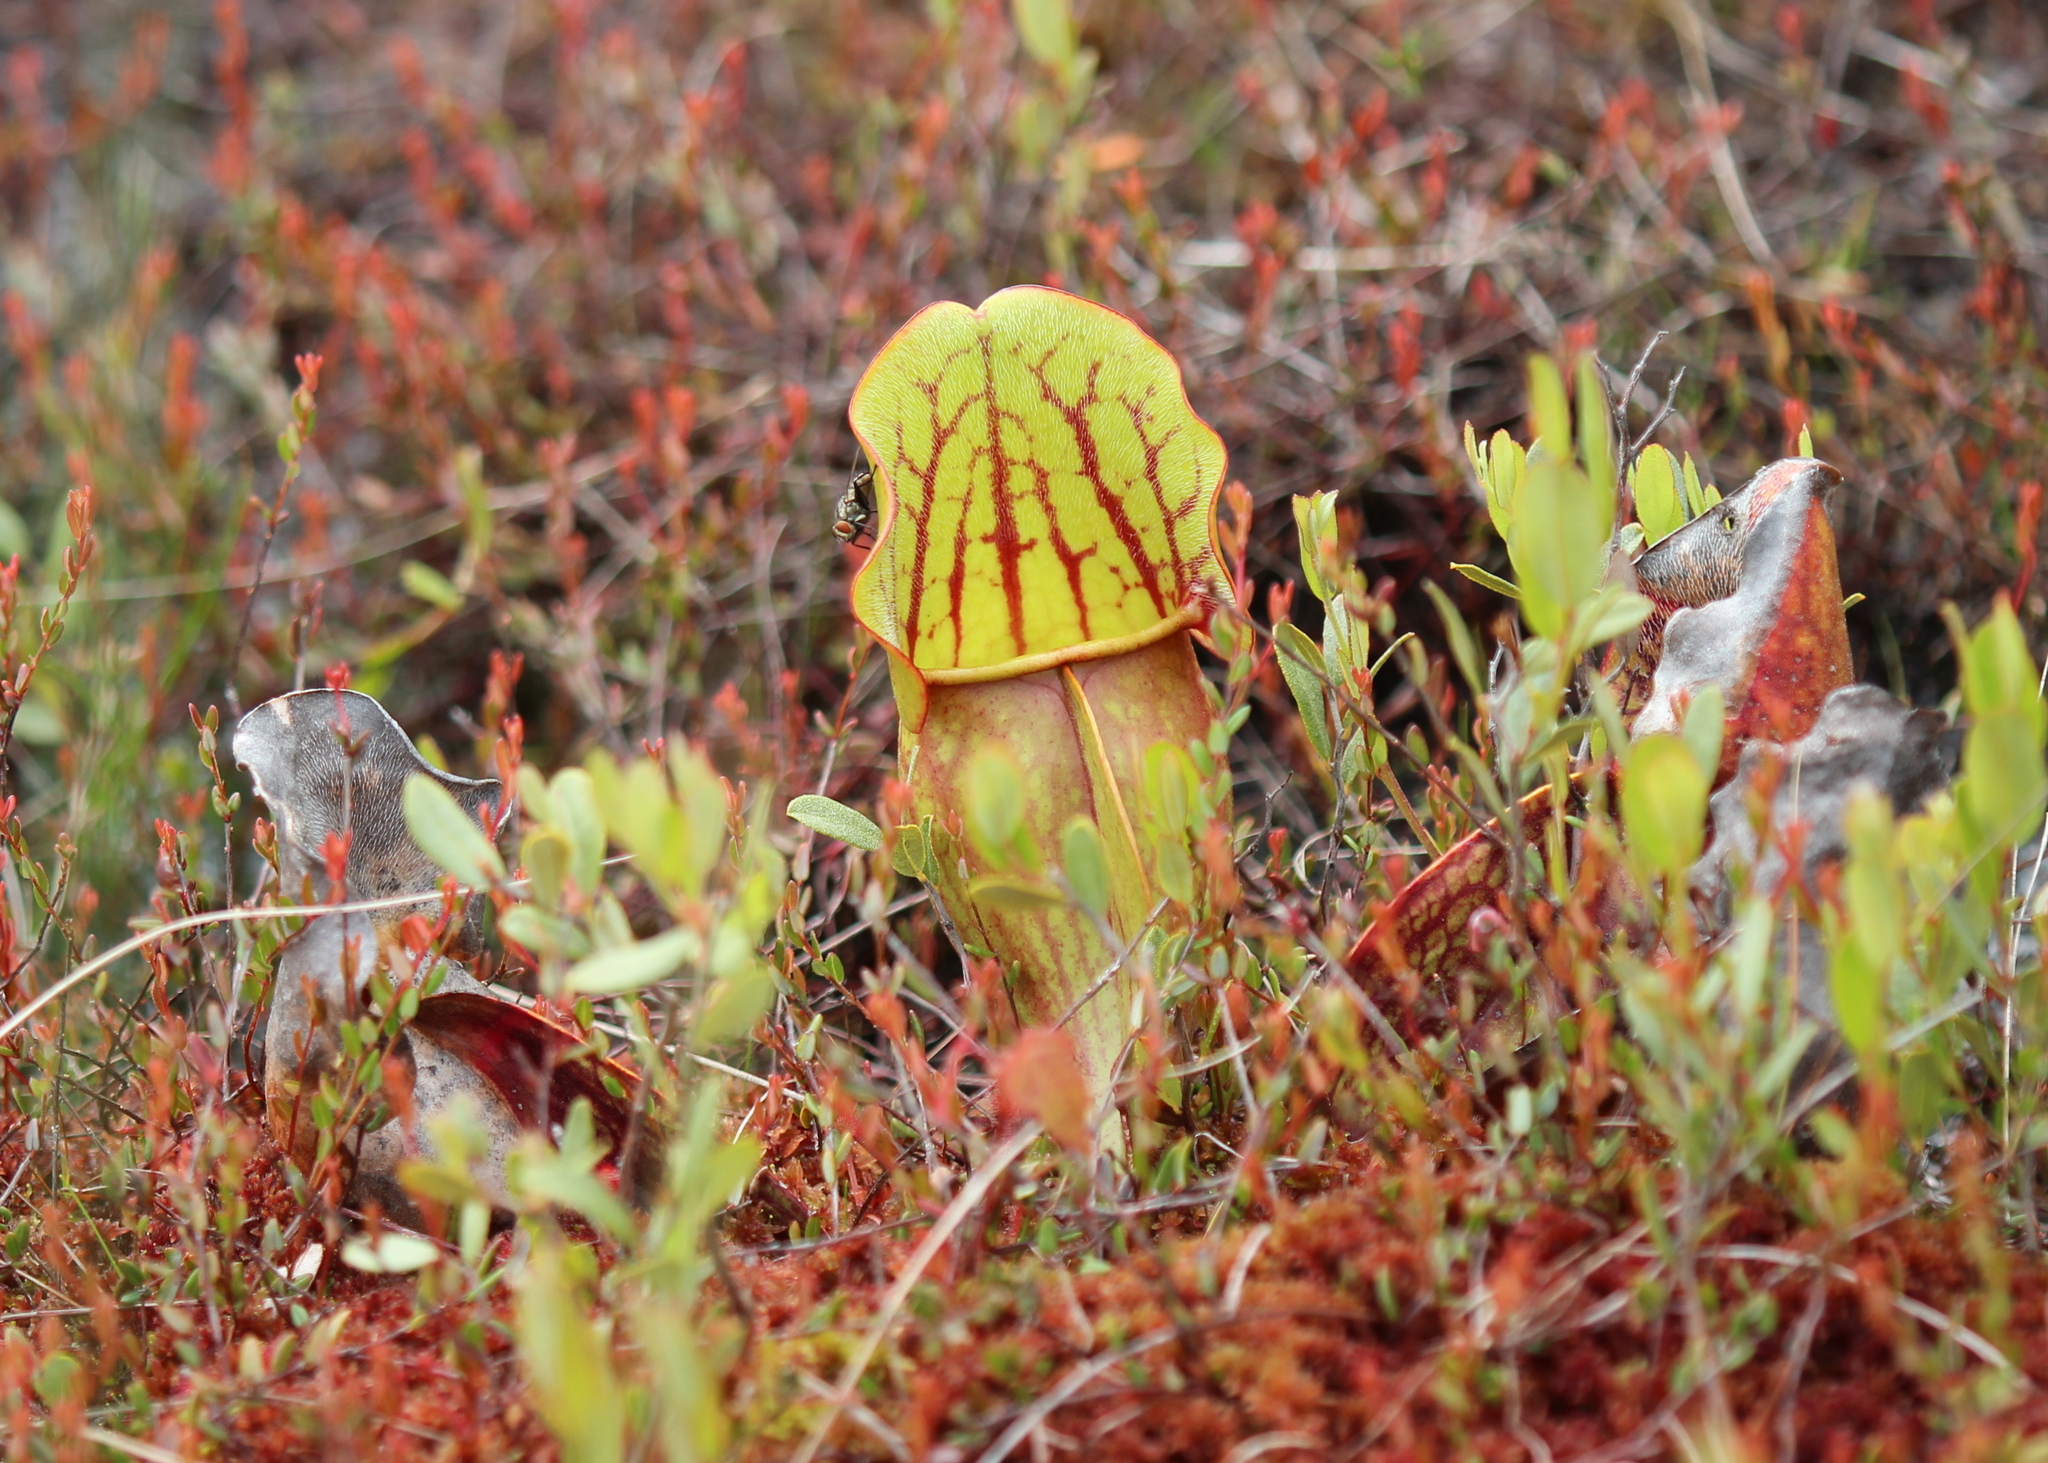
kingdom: Plantae
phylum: Tracheophyta
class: Magnoliopsida
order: Ericales
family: Sarraceniaceae
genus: Sarracenia
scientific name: Sarracenia purpurea
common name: Pitcherplant
